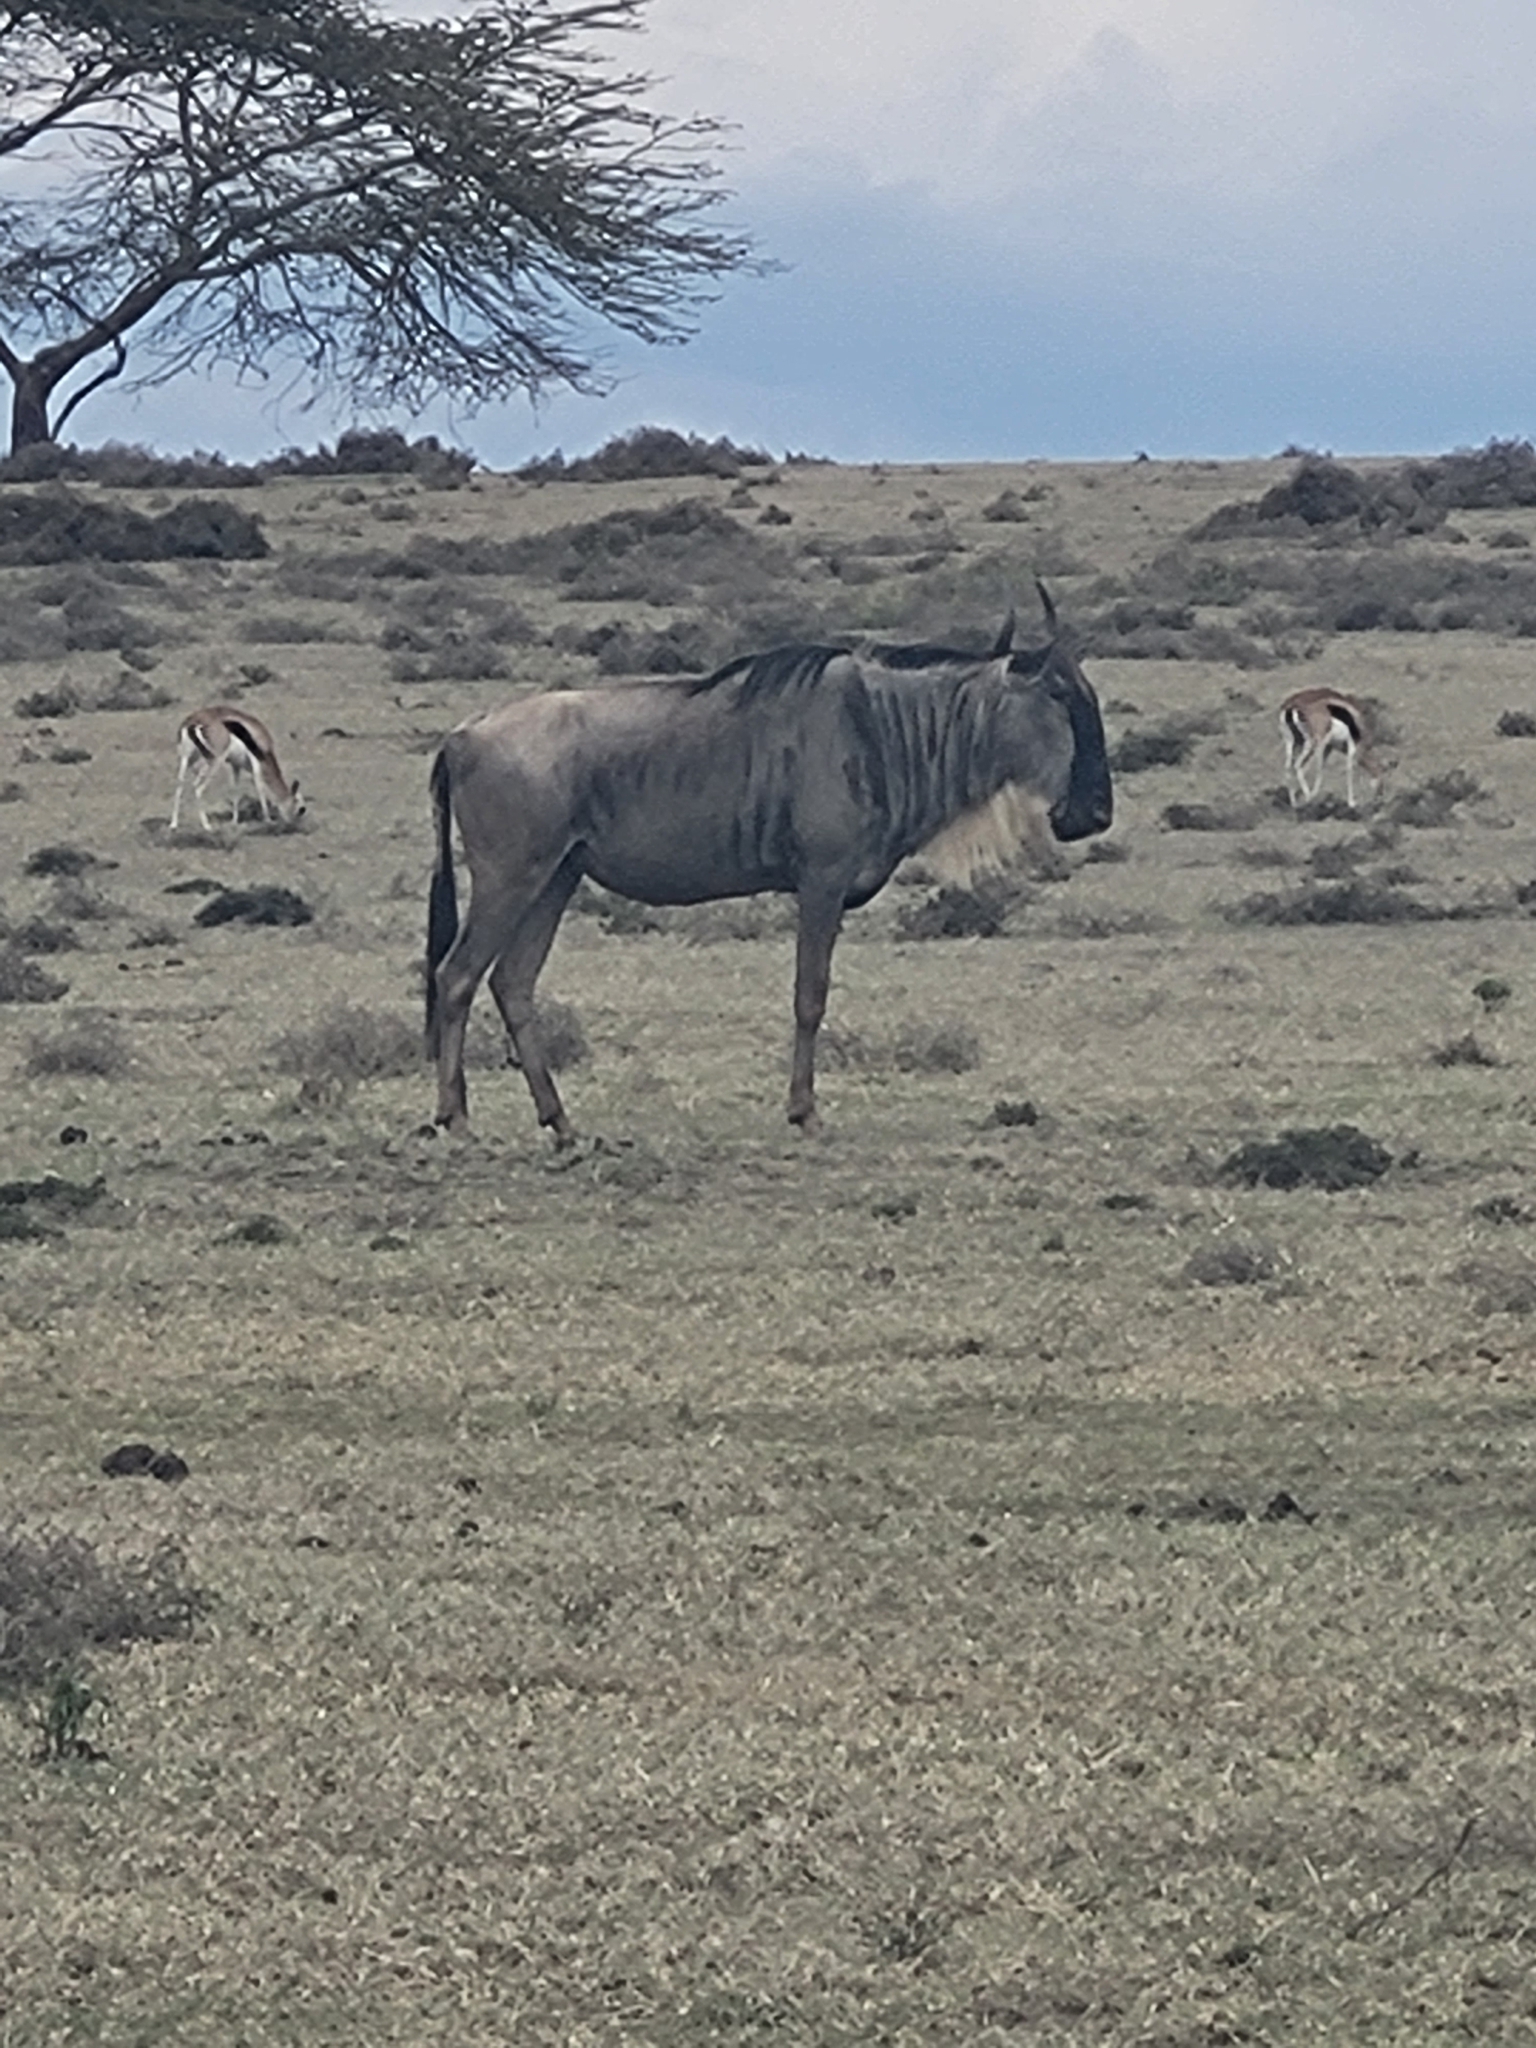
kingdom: Animalia
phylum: Chordata
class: Mammalia
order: Artiodactyla
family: Bovidae
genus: Connochaetes
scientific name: Connochaetes taurinus
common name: Blue wildebeest
